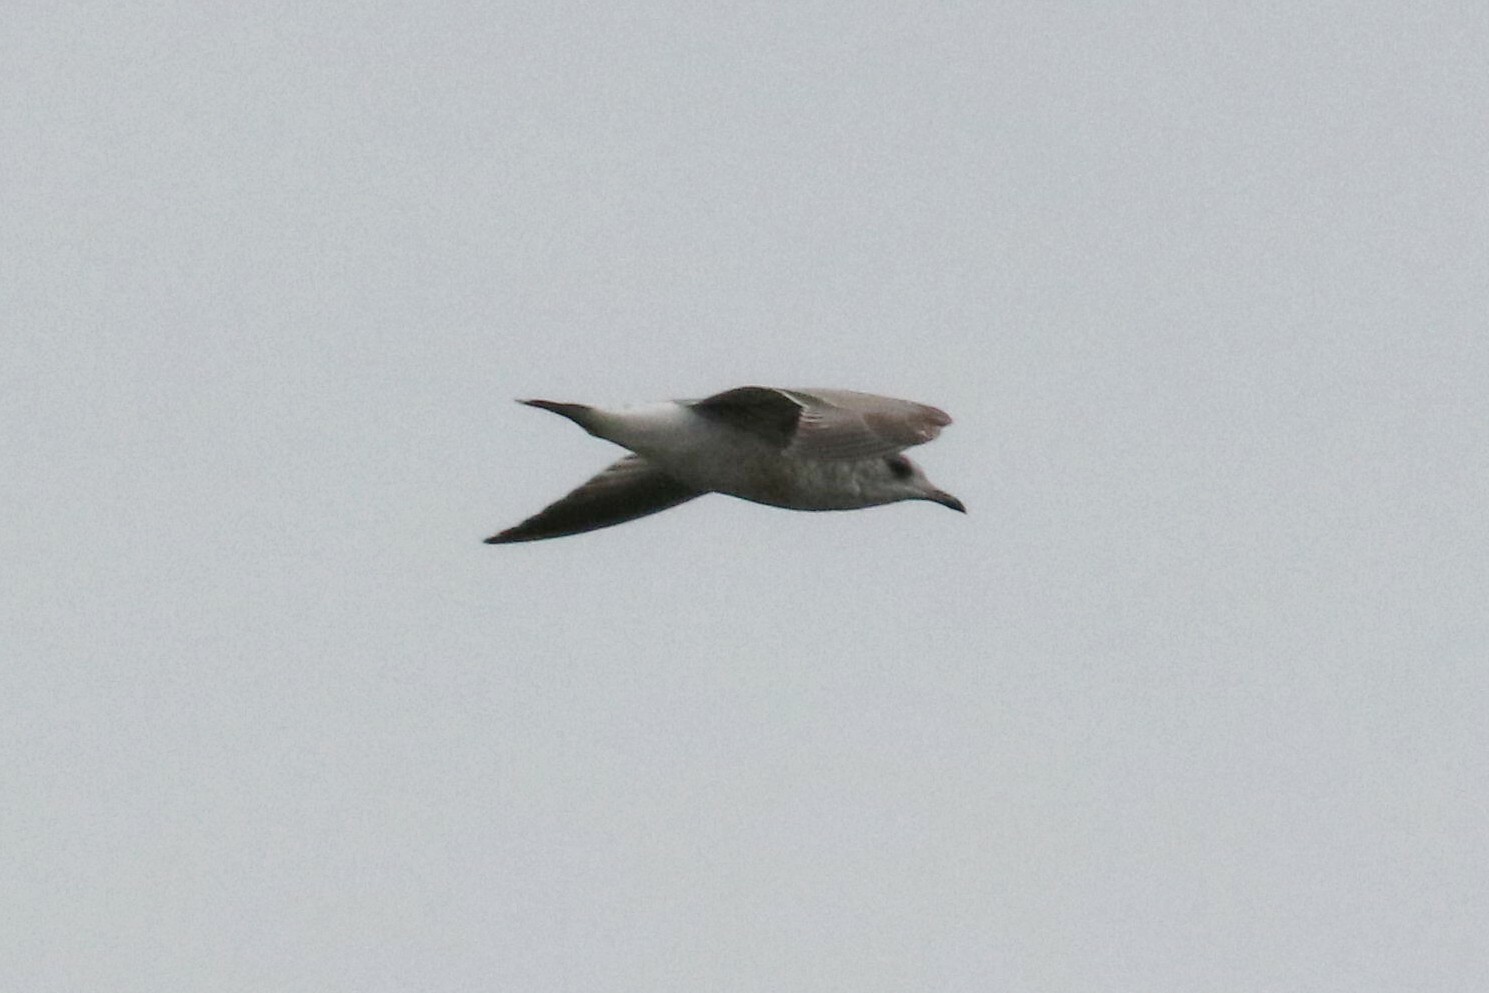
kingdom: Animalia
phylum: Chordata
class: Aves
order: Charadriiformes
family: Laridae
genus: Larus
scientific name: Larus canus
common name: Mew gull
